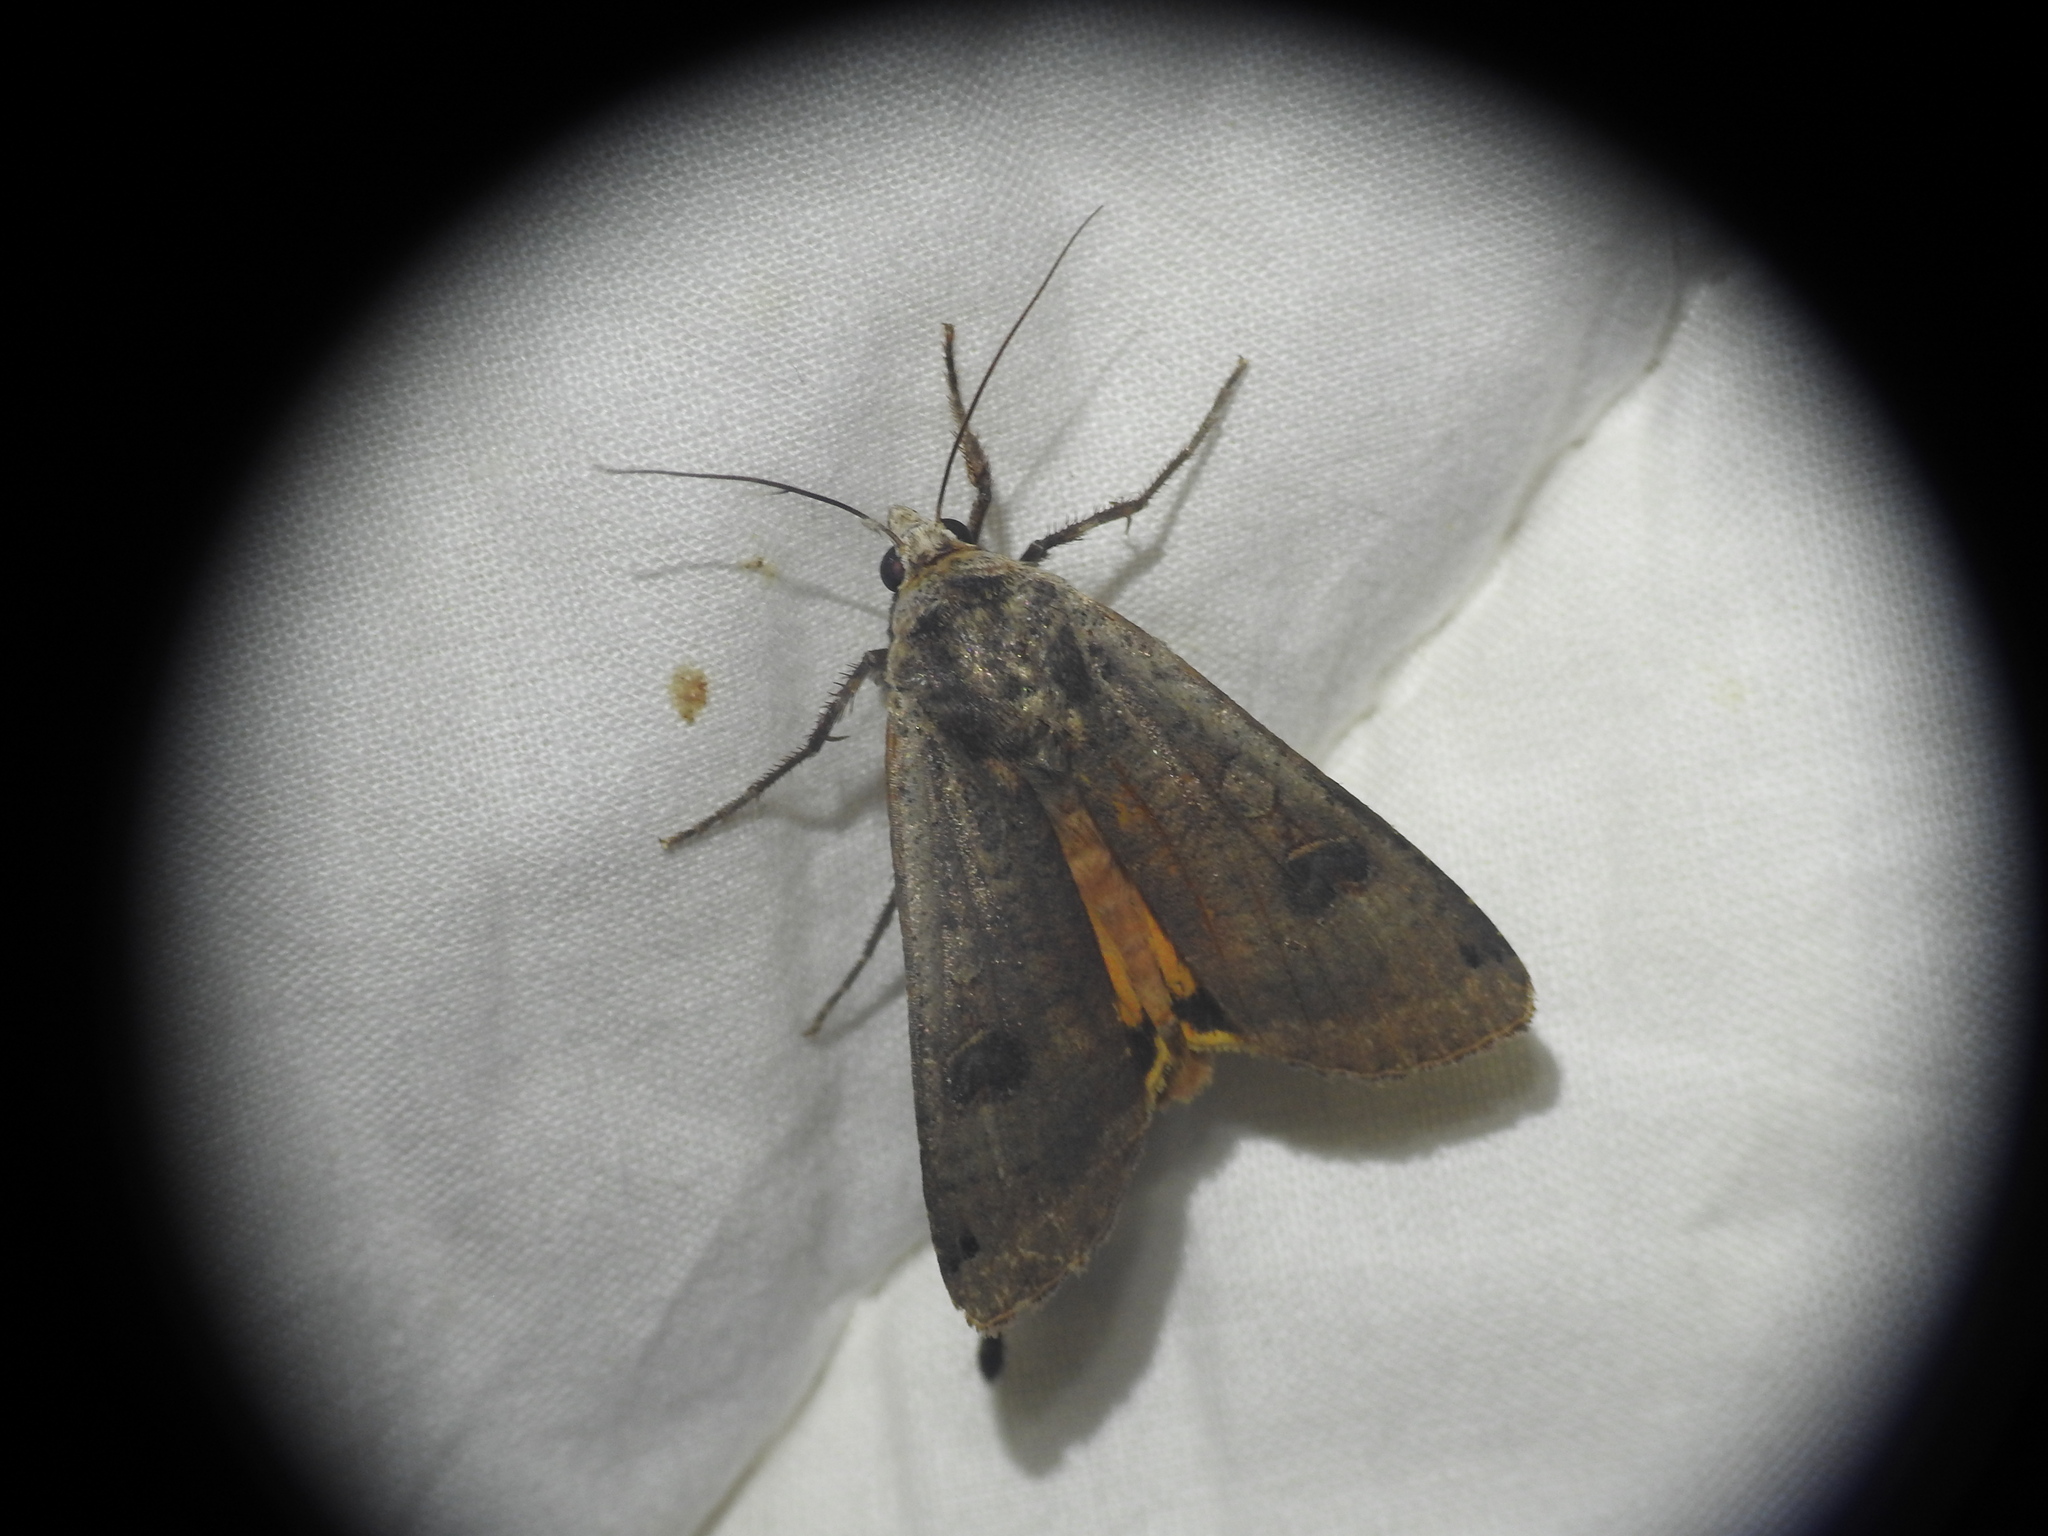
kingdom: Animalia
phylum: Arthropoda
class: Insecta
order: Lepidoptera
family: Noctuidae
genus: Noctua
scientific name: Noctua pronuba
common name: Large yellow underwing
